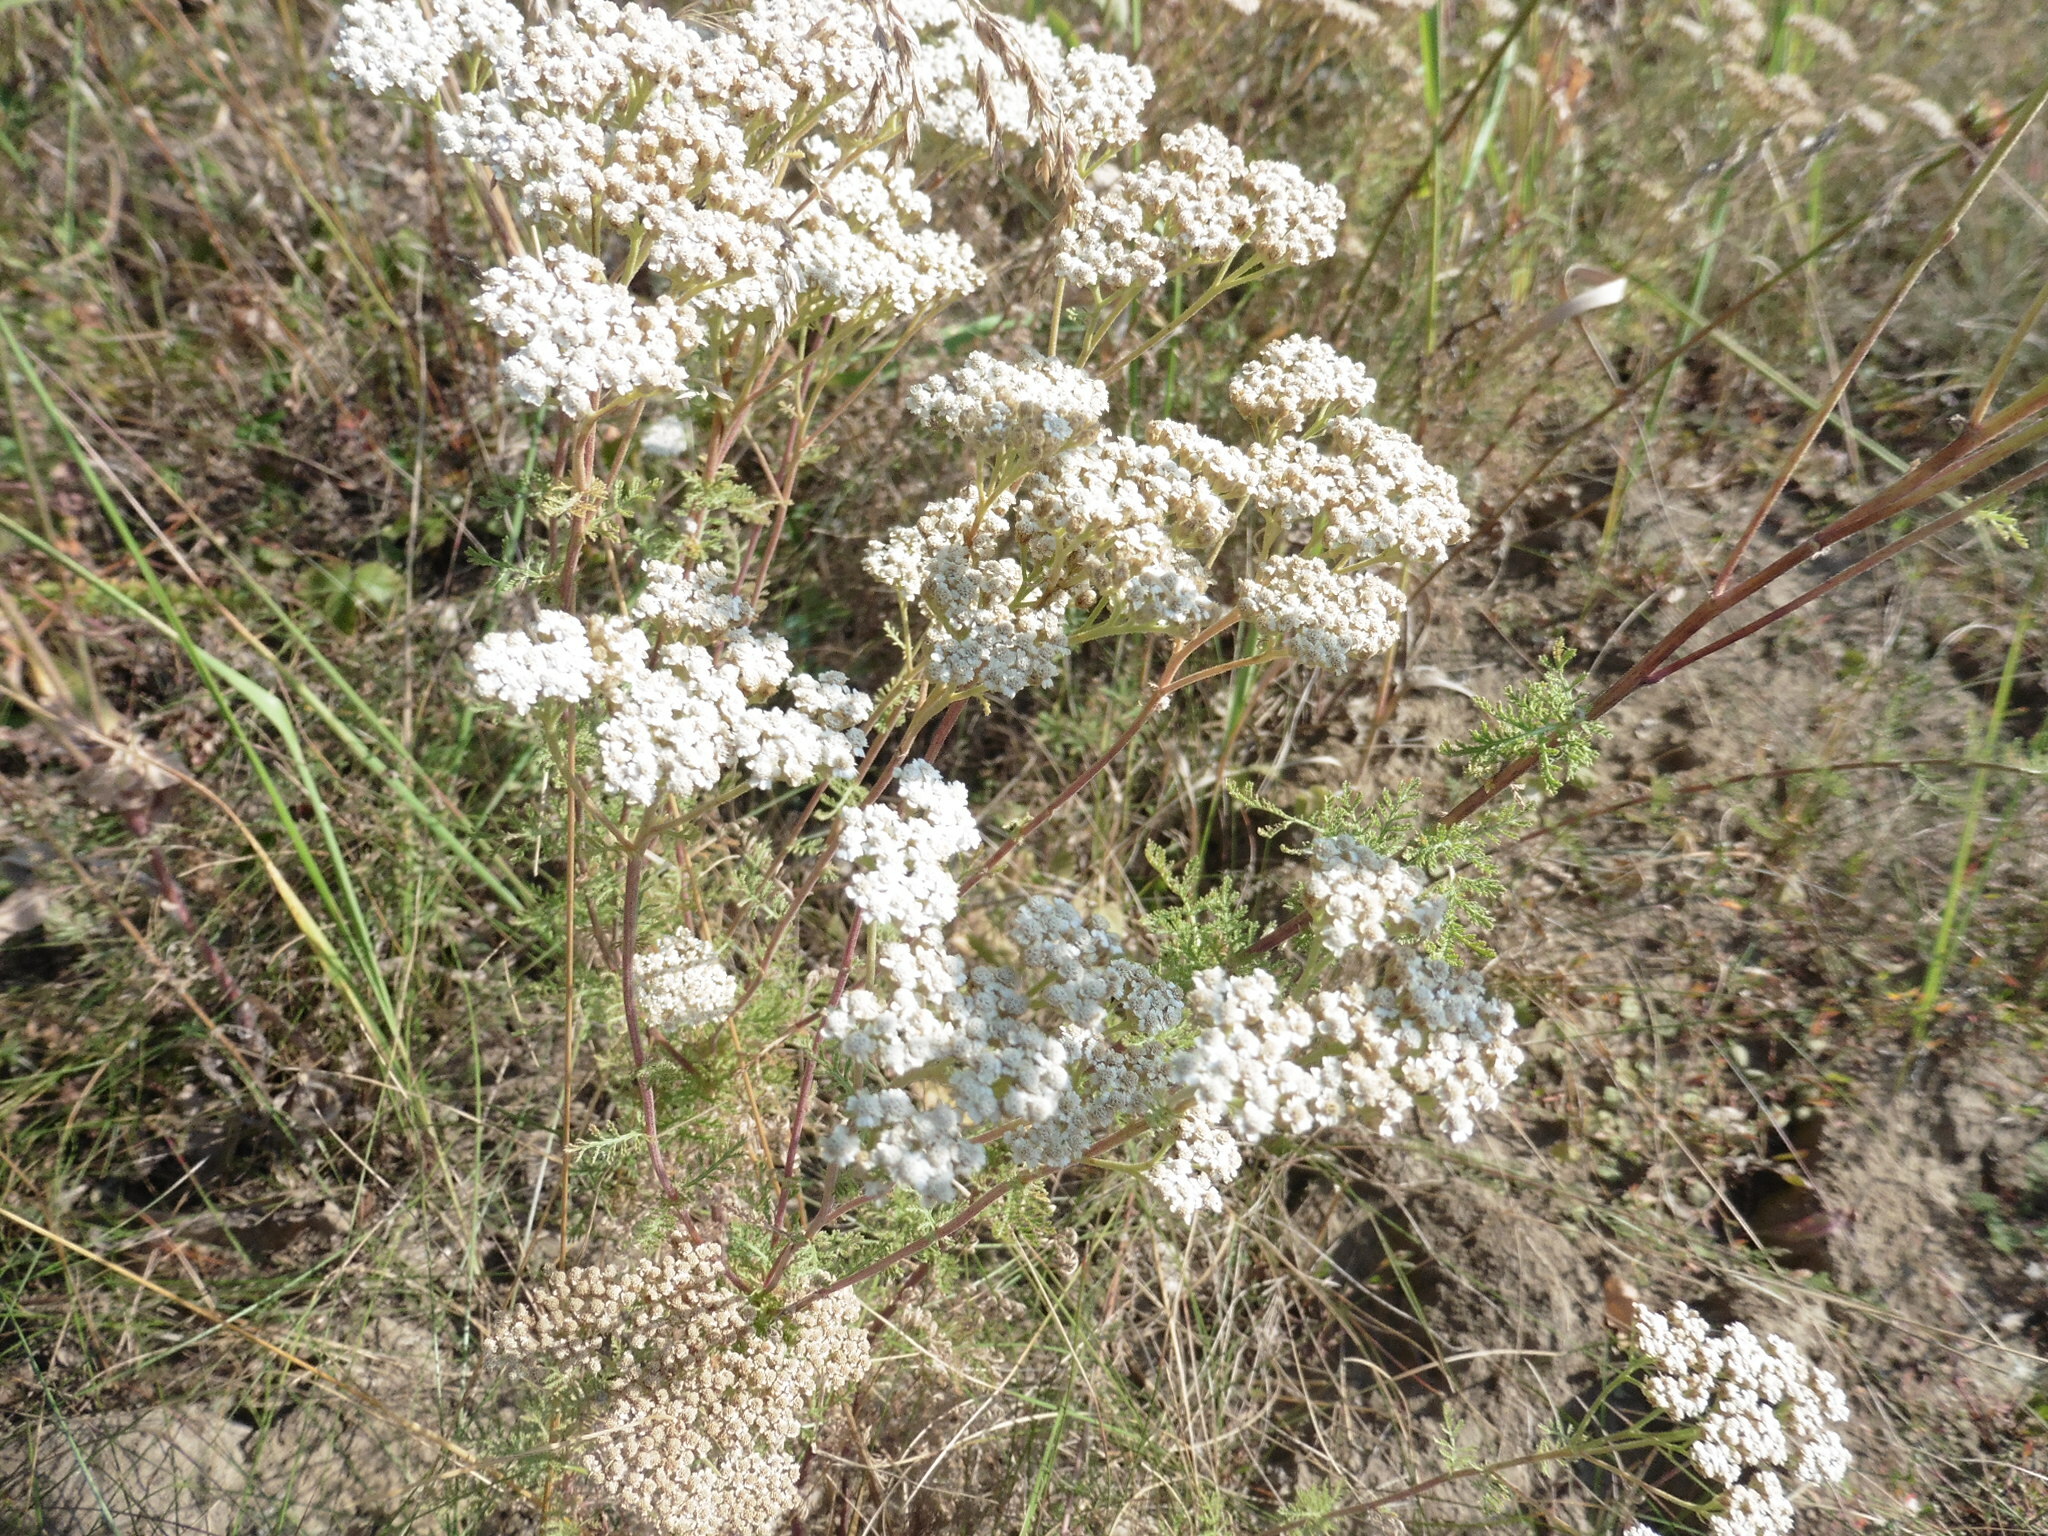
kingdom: Plantae
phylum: Tracheophyta
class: Magnoliopsida
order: Asterales
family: Asteraceae
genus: Achillea
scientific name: Achillea nobilis
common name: Noble yarrow
